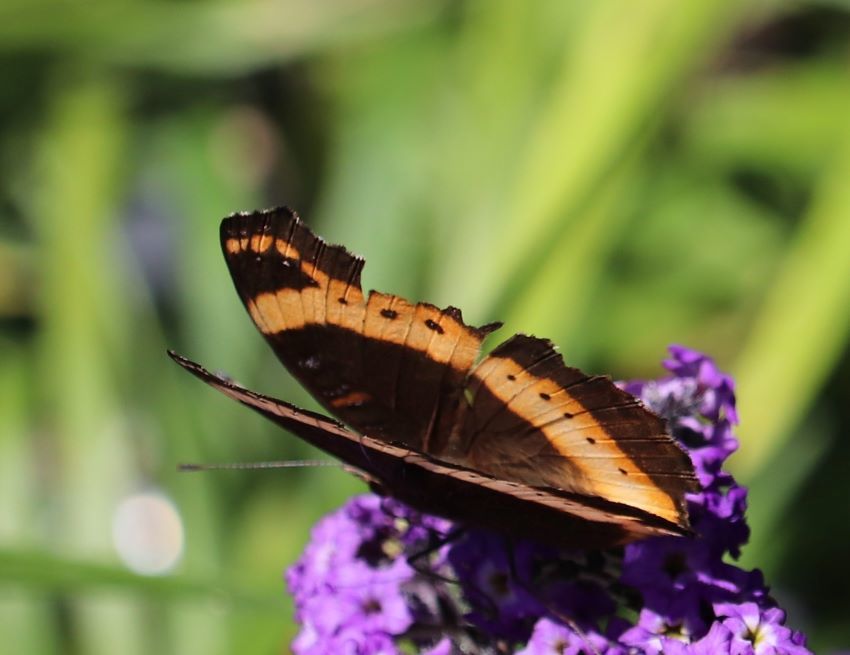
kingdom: Animalia
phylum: Arthropoda
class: Insecta
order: Lepidoptera
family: Nymphalidae
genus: Junonia
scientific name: Junonia archesia
